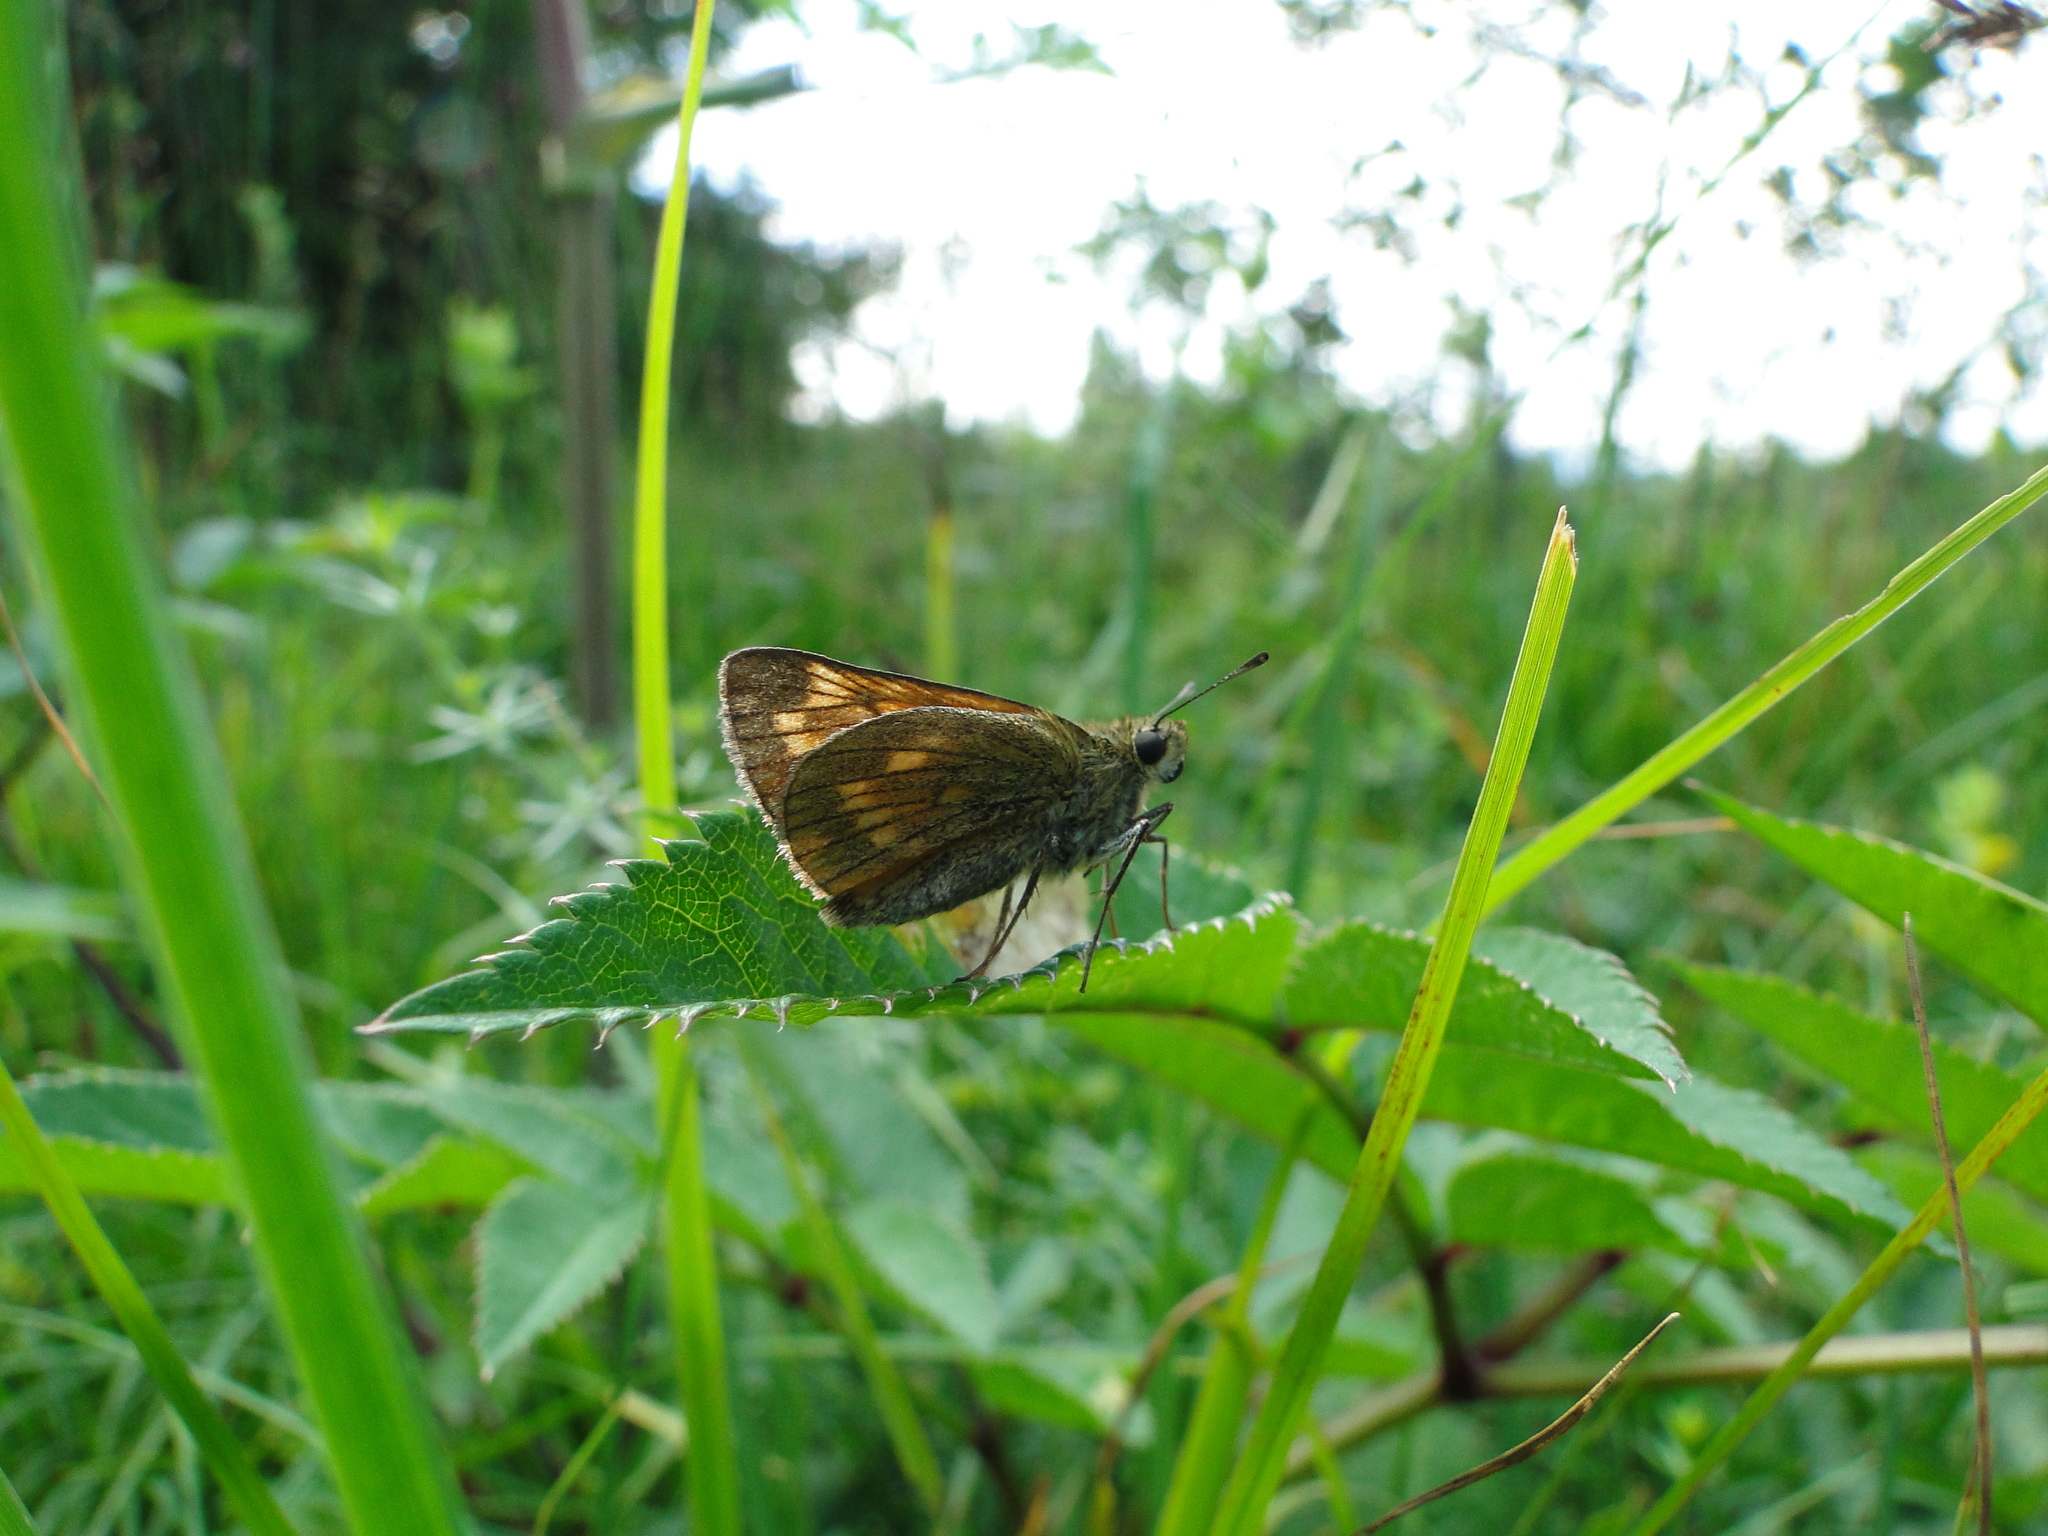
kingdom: Animalia
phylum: Arthropoda
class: Insecta
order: Lepidoptera
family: Hesperiidae
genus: Ochlodes
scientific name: Ochlodes venata
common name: Large skipper
